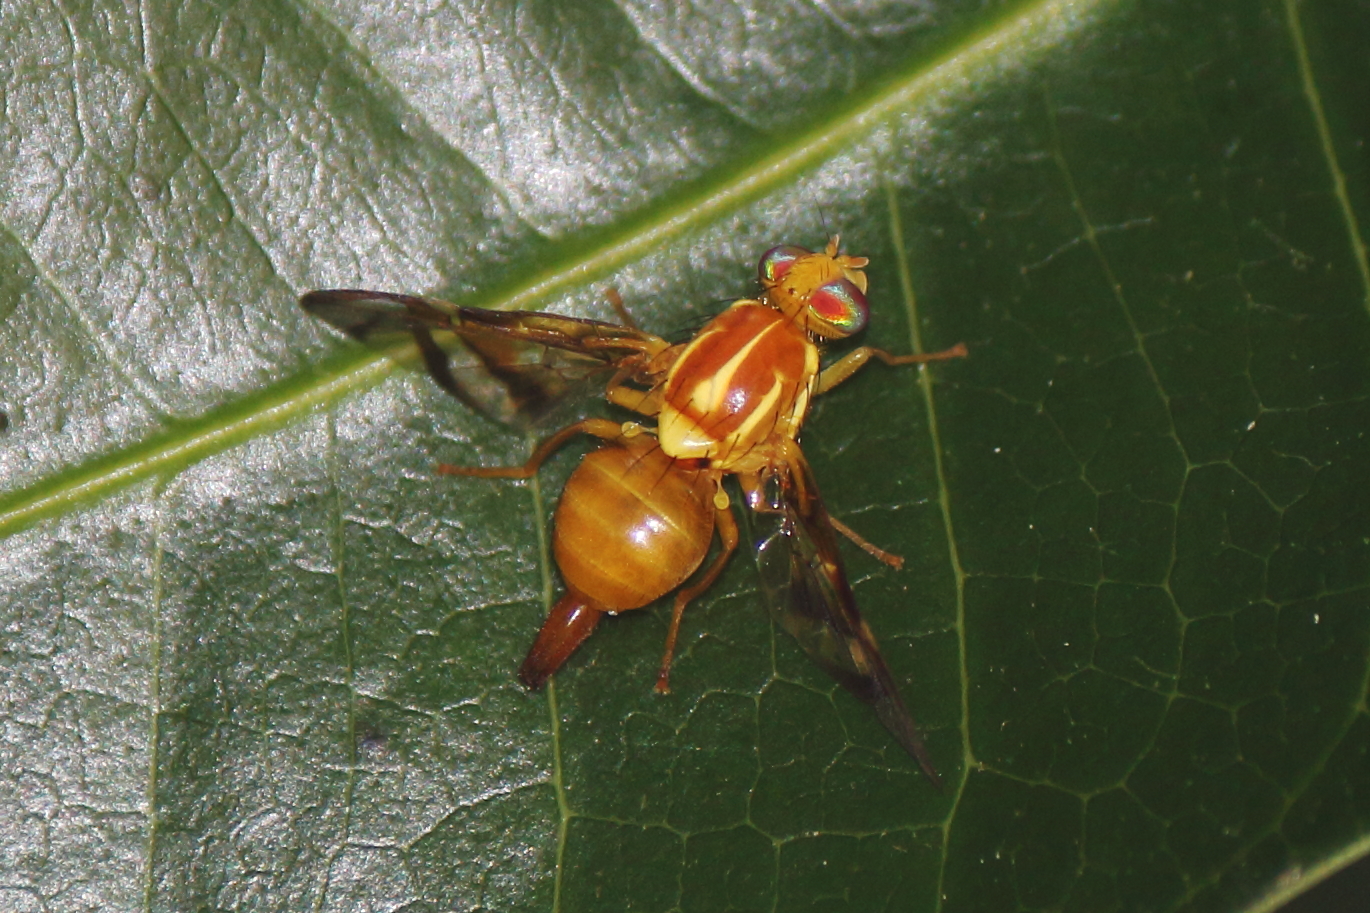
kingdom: Animalia
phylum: Arthropoda
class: Insecta
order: Diptera
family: Tephritidae
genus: Anastrepha
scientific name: Anastrepha obliqua
